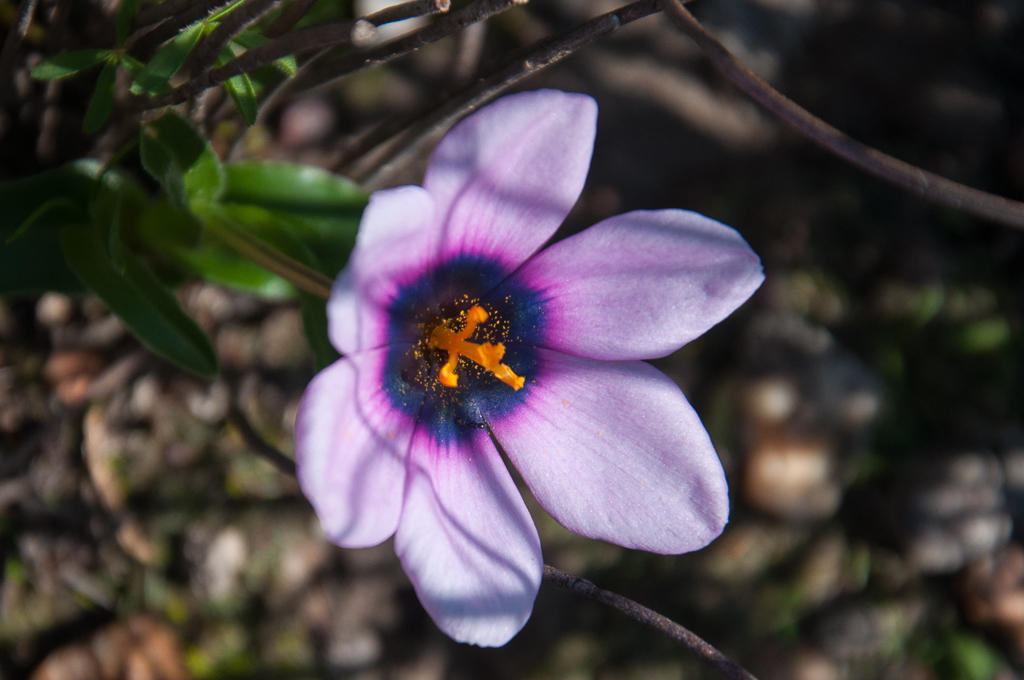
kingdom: Plantae
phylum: Tracheophyta
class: Liliopsida
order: Asparagales
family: Iridaceae
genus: Moraea
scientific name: Moraea melanops
